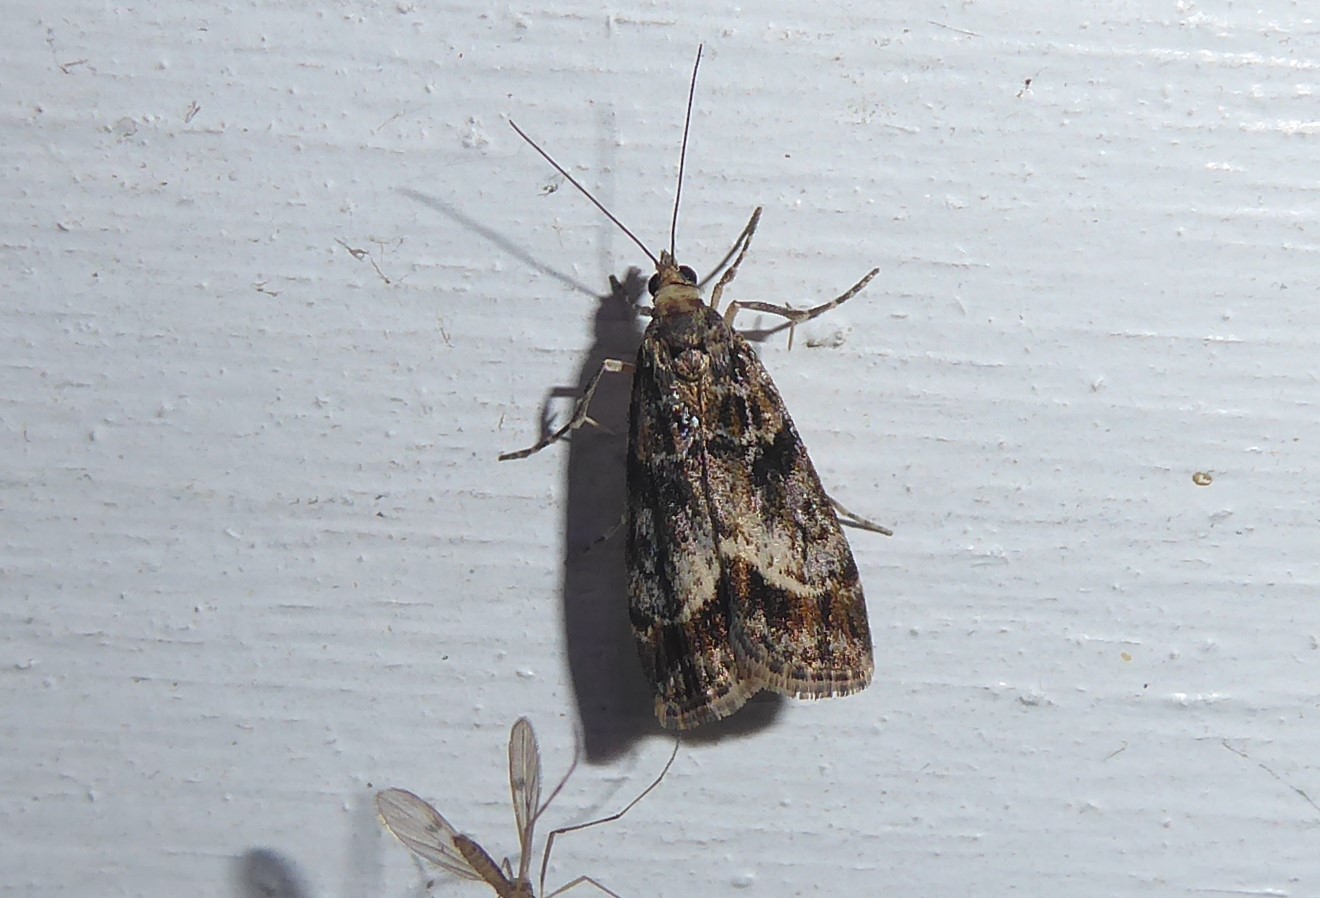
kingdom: Animalia
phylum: Arthropoda
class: Insecta
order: Lepidoptera
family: Crambidae
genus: Eudonia
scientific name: Eudonia legnota
